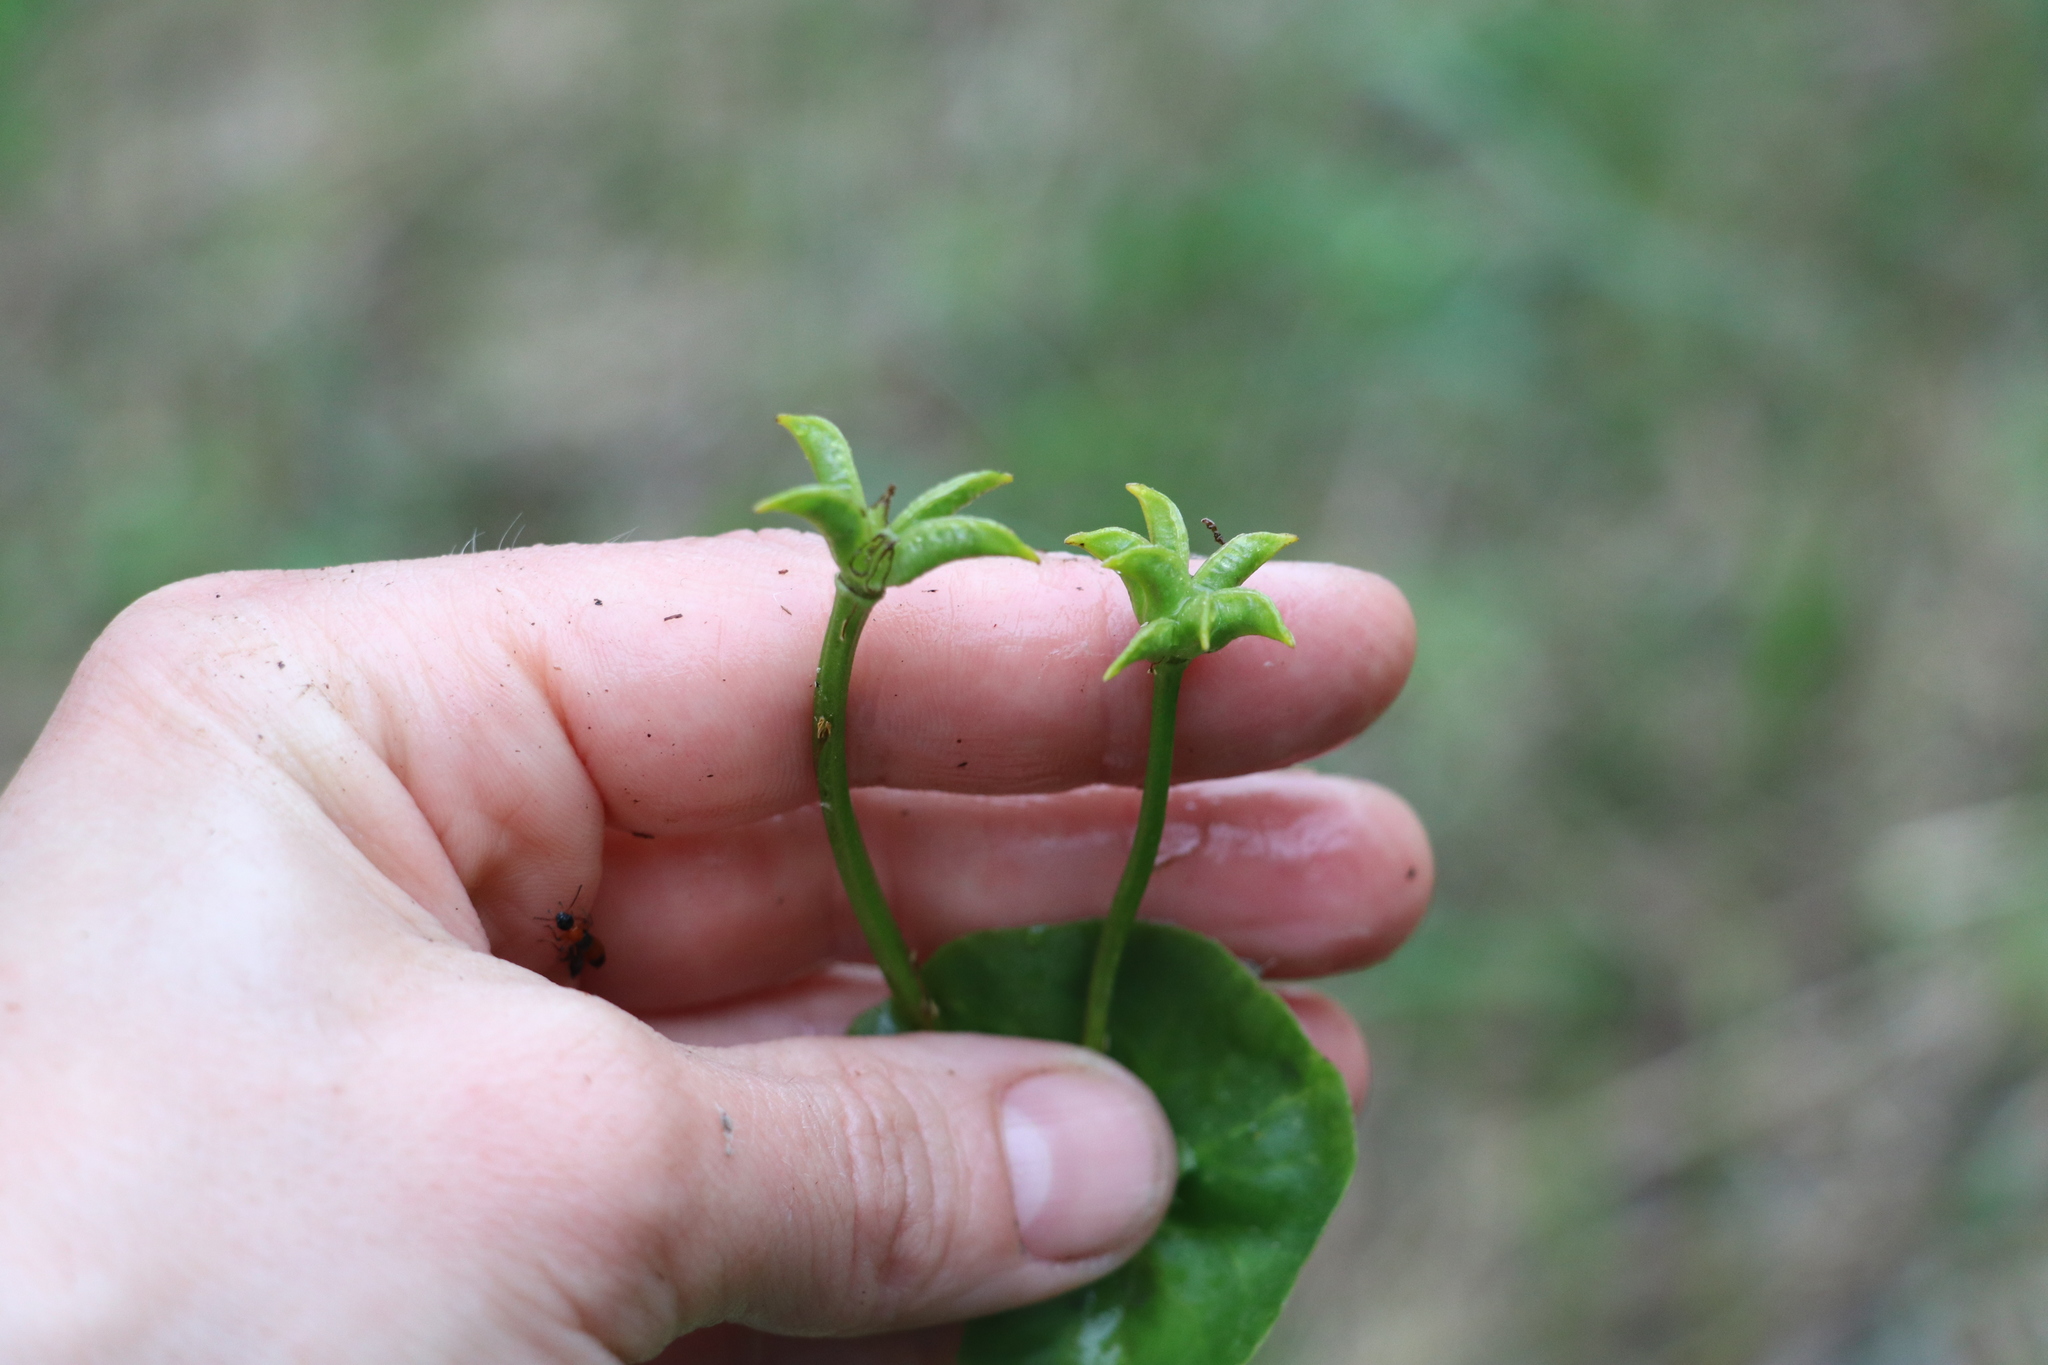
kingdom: Plantae
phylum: Tracheophyta
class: Magnoliopsida
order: Ranunculales
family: Ranunculaceae
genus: Caltha
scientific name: Caltha palustris
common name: Marsh marigold
